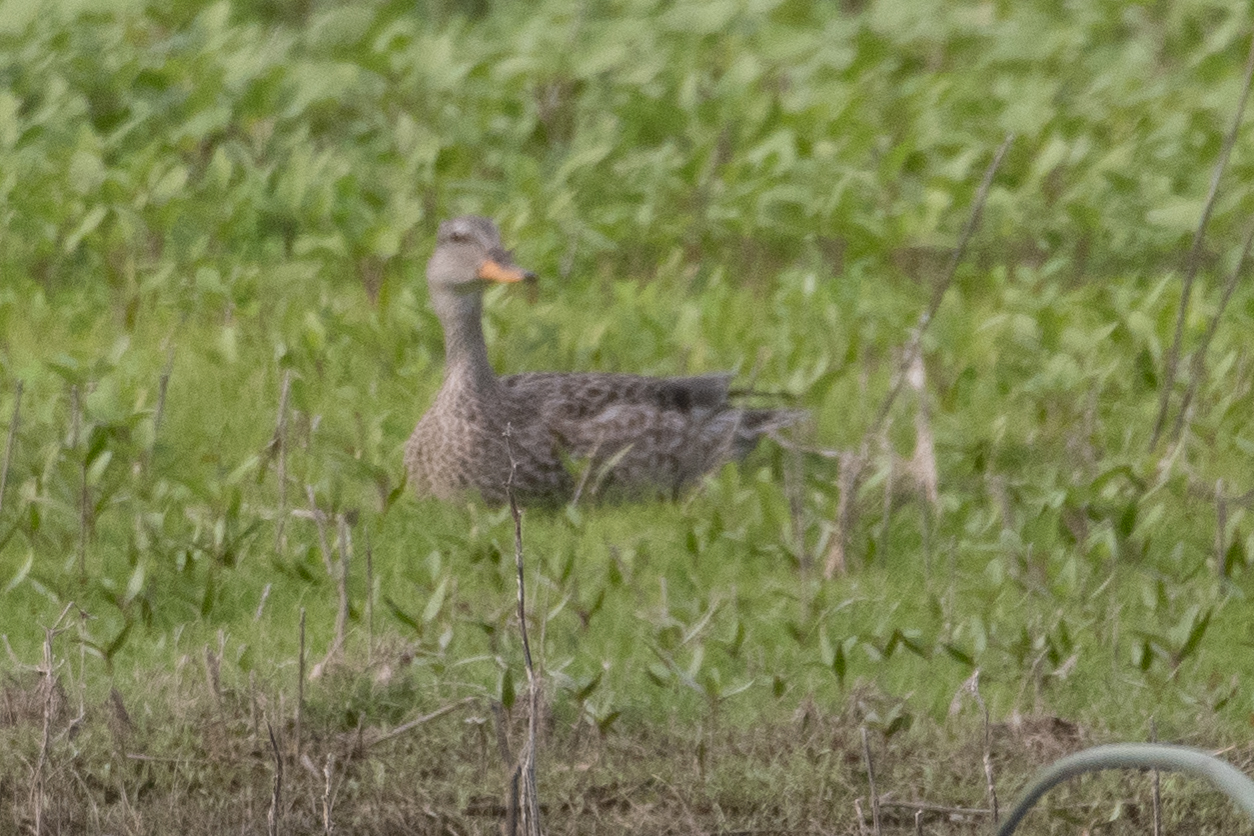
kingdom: Animalia
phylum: Chordata
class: Aves
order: Anseriformes
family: Anatidae
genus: Anas
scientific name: Anas platyrhynchos
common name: Mallard
